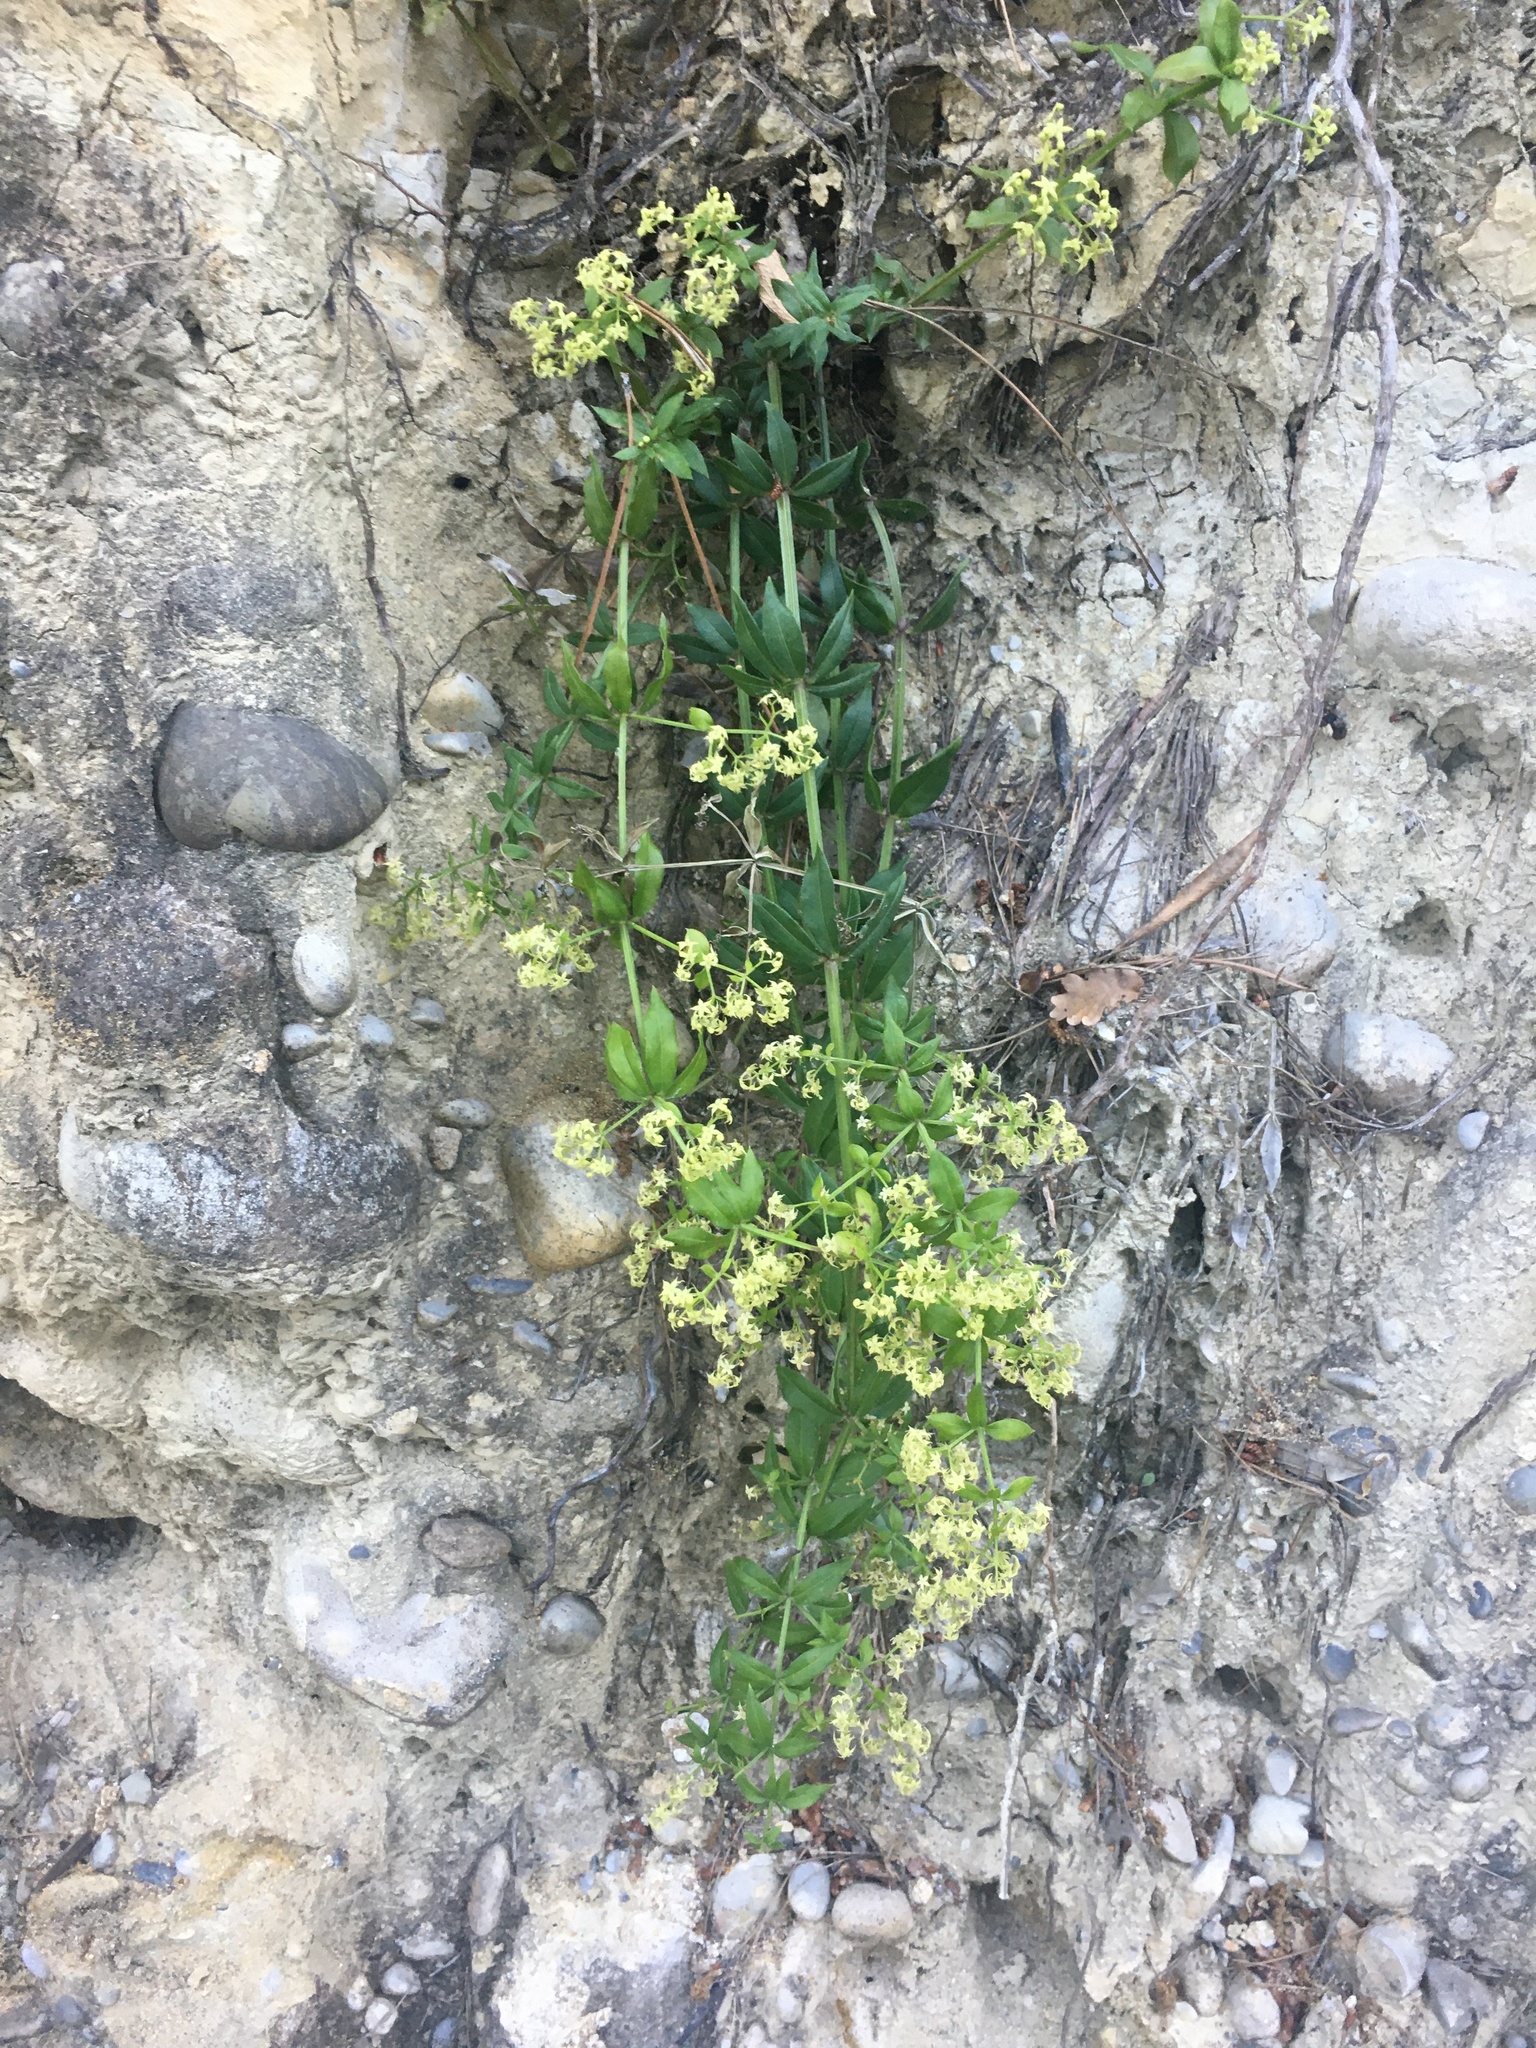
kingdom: Plantae
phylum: Tracheophyta
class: Magnoliopsida
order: Gentianales
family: Rubiaceae
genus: Rubia
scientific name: Rubia peregrina
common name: Wild madder
